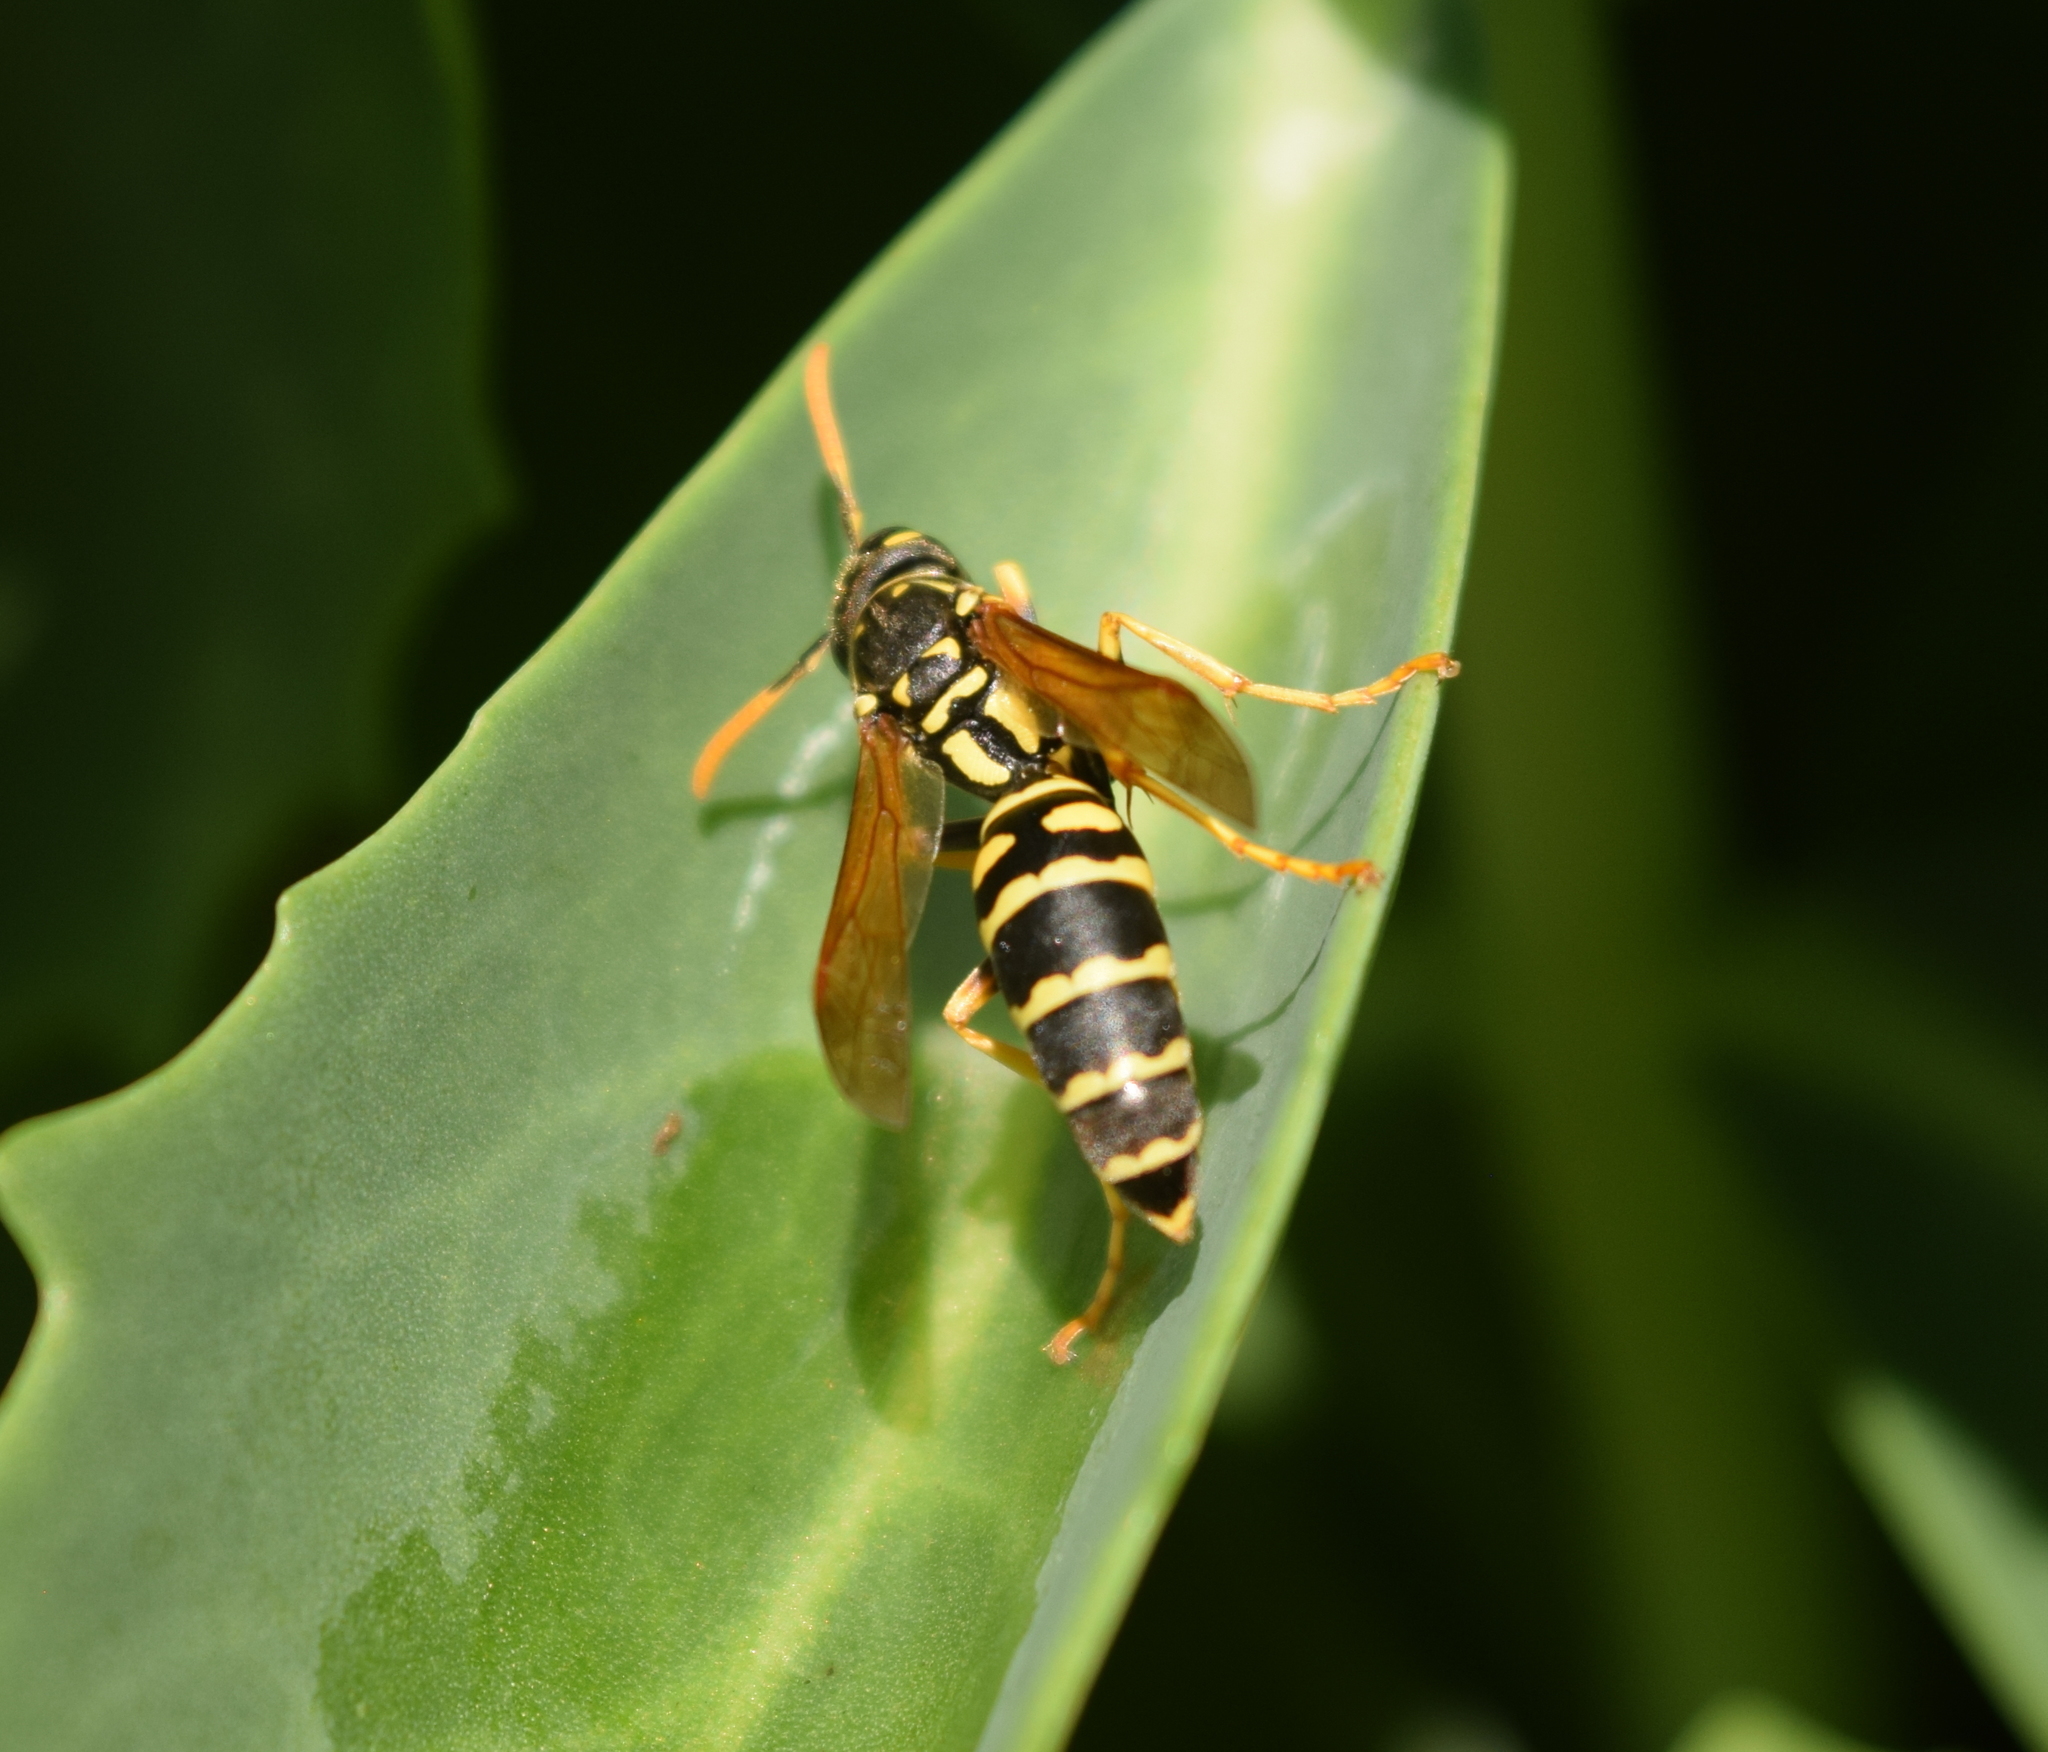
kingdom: Animalia
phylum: Arthropoda
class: Insecta
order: Hymenoptera
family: Eumenidae
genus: Polistes
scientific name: Polistes dominula
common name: Paper wasp
